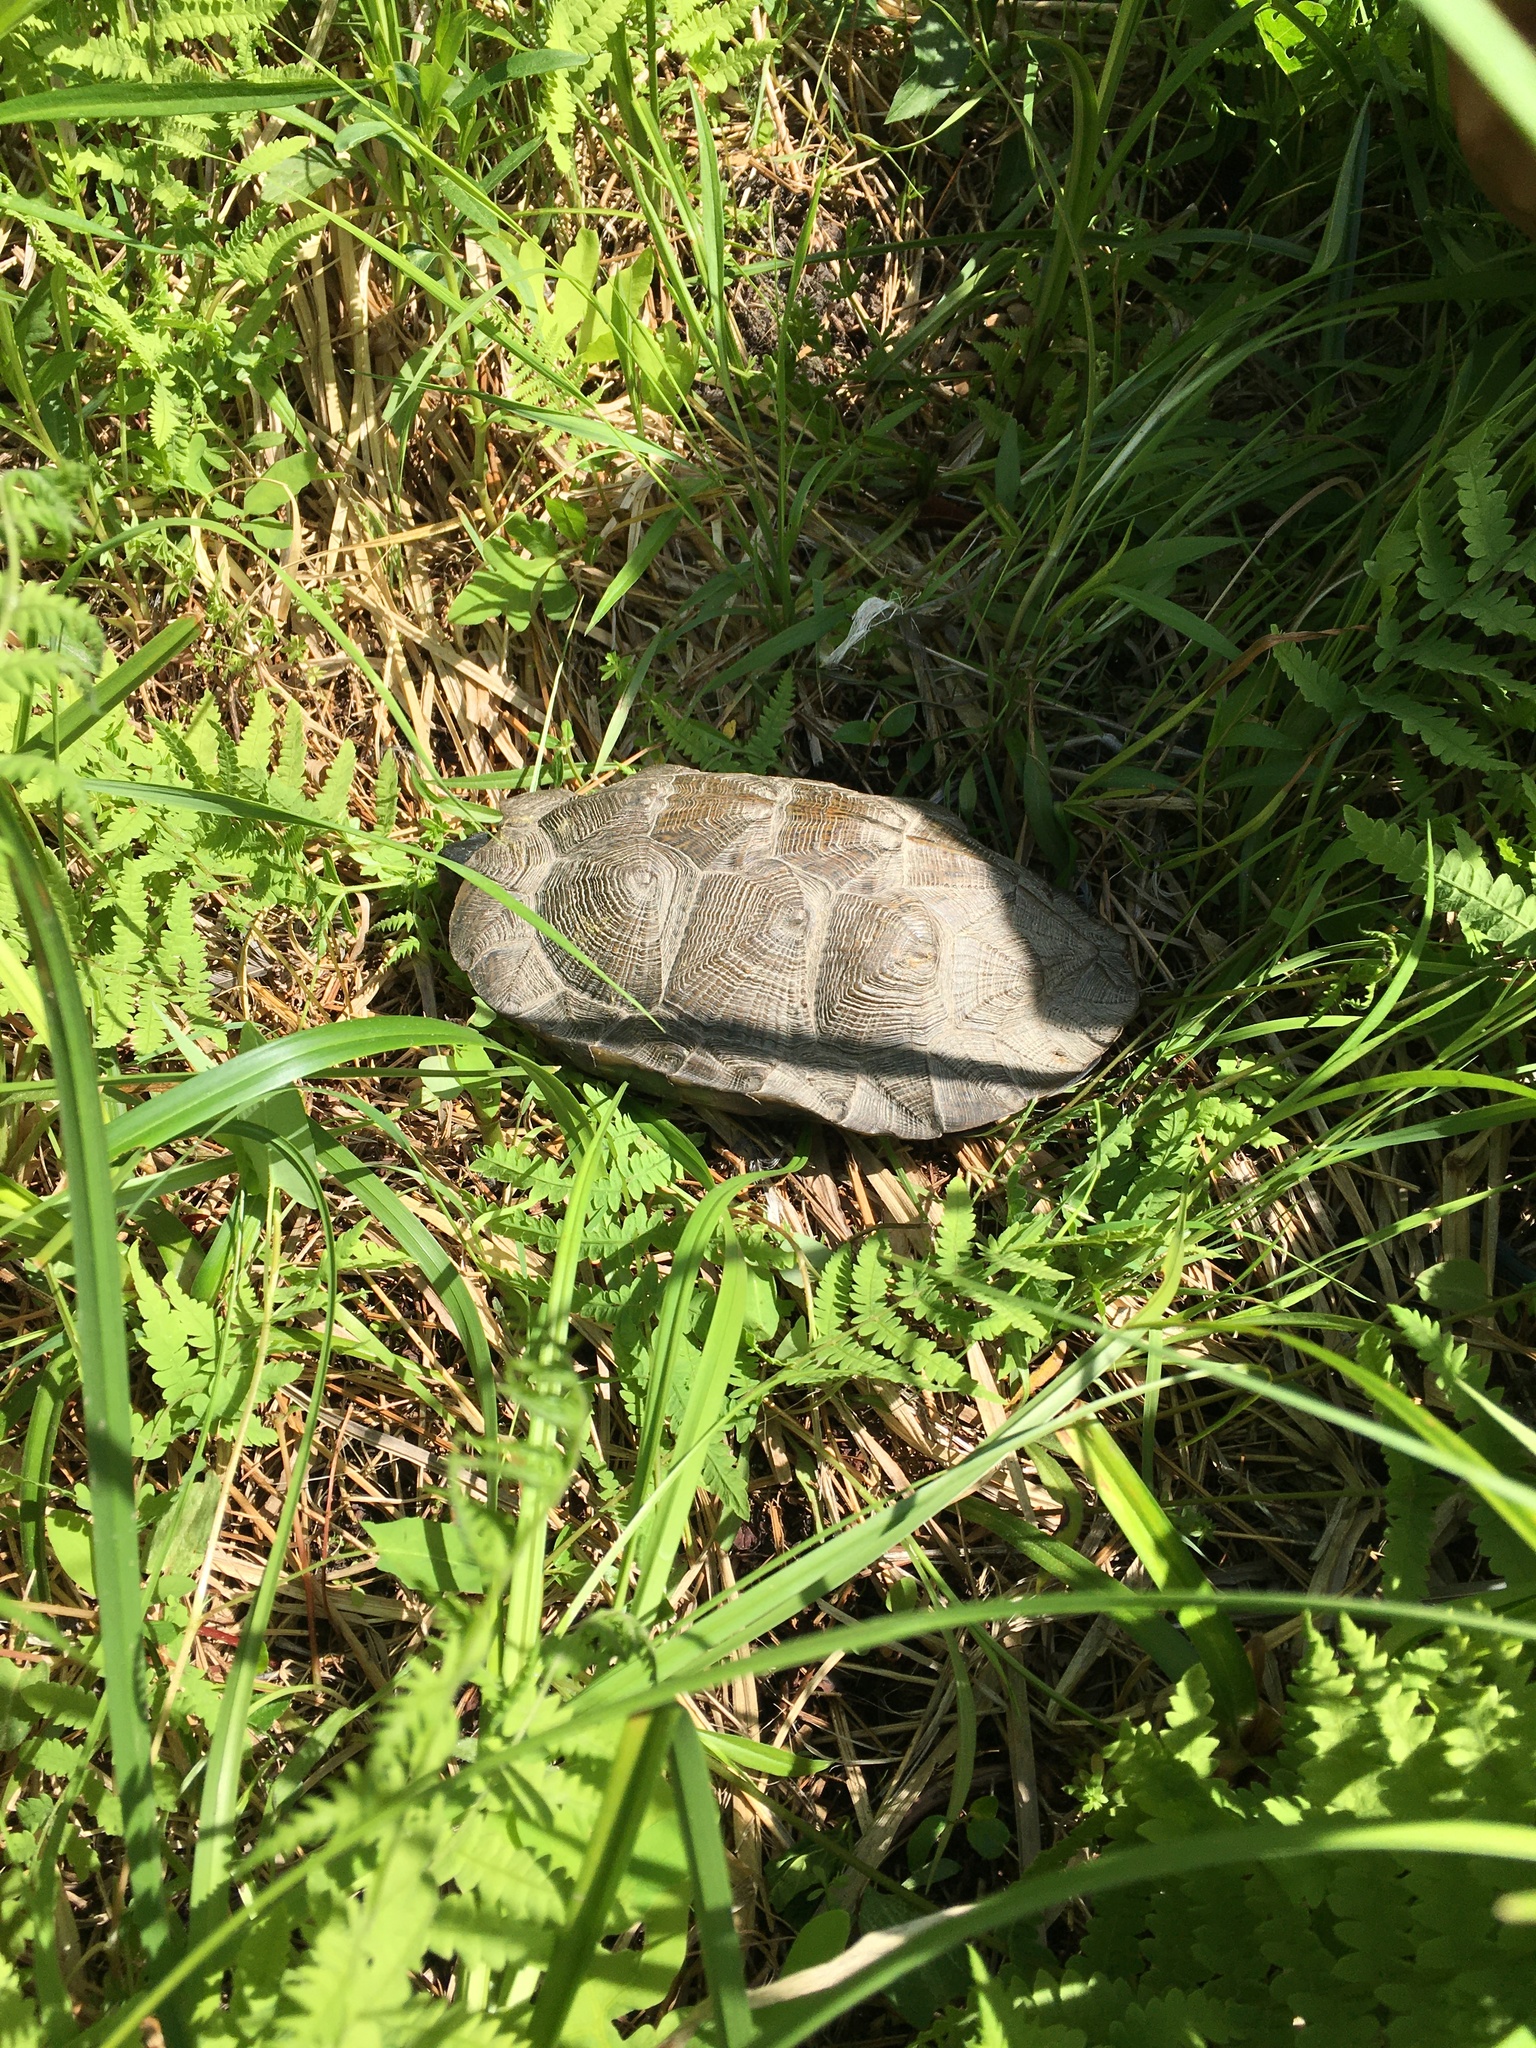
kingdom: Animalia
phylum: Chordata
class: Testudines
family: Emydidae
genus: Glyptemys
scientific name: Glyptemys insculpta
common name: Wood turtle
